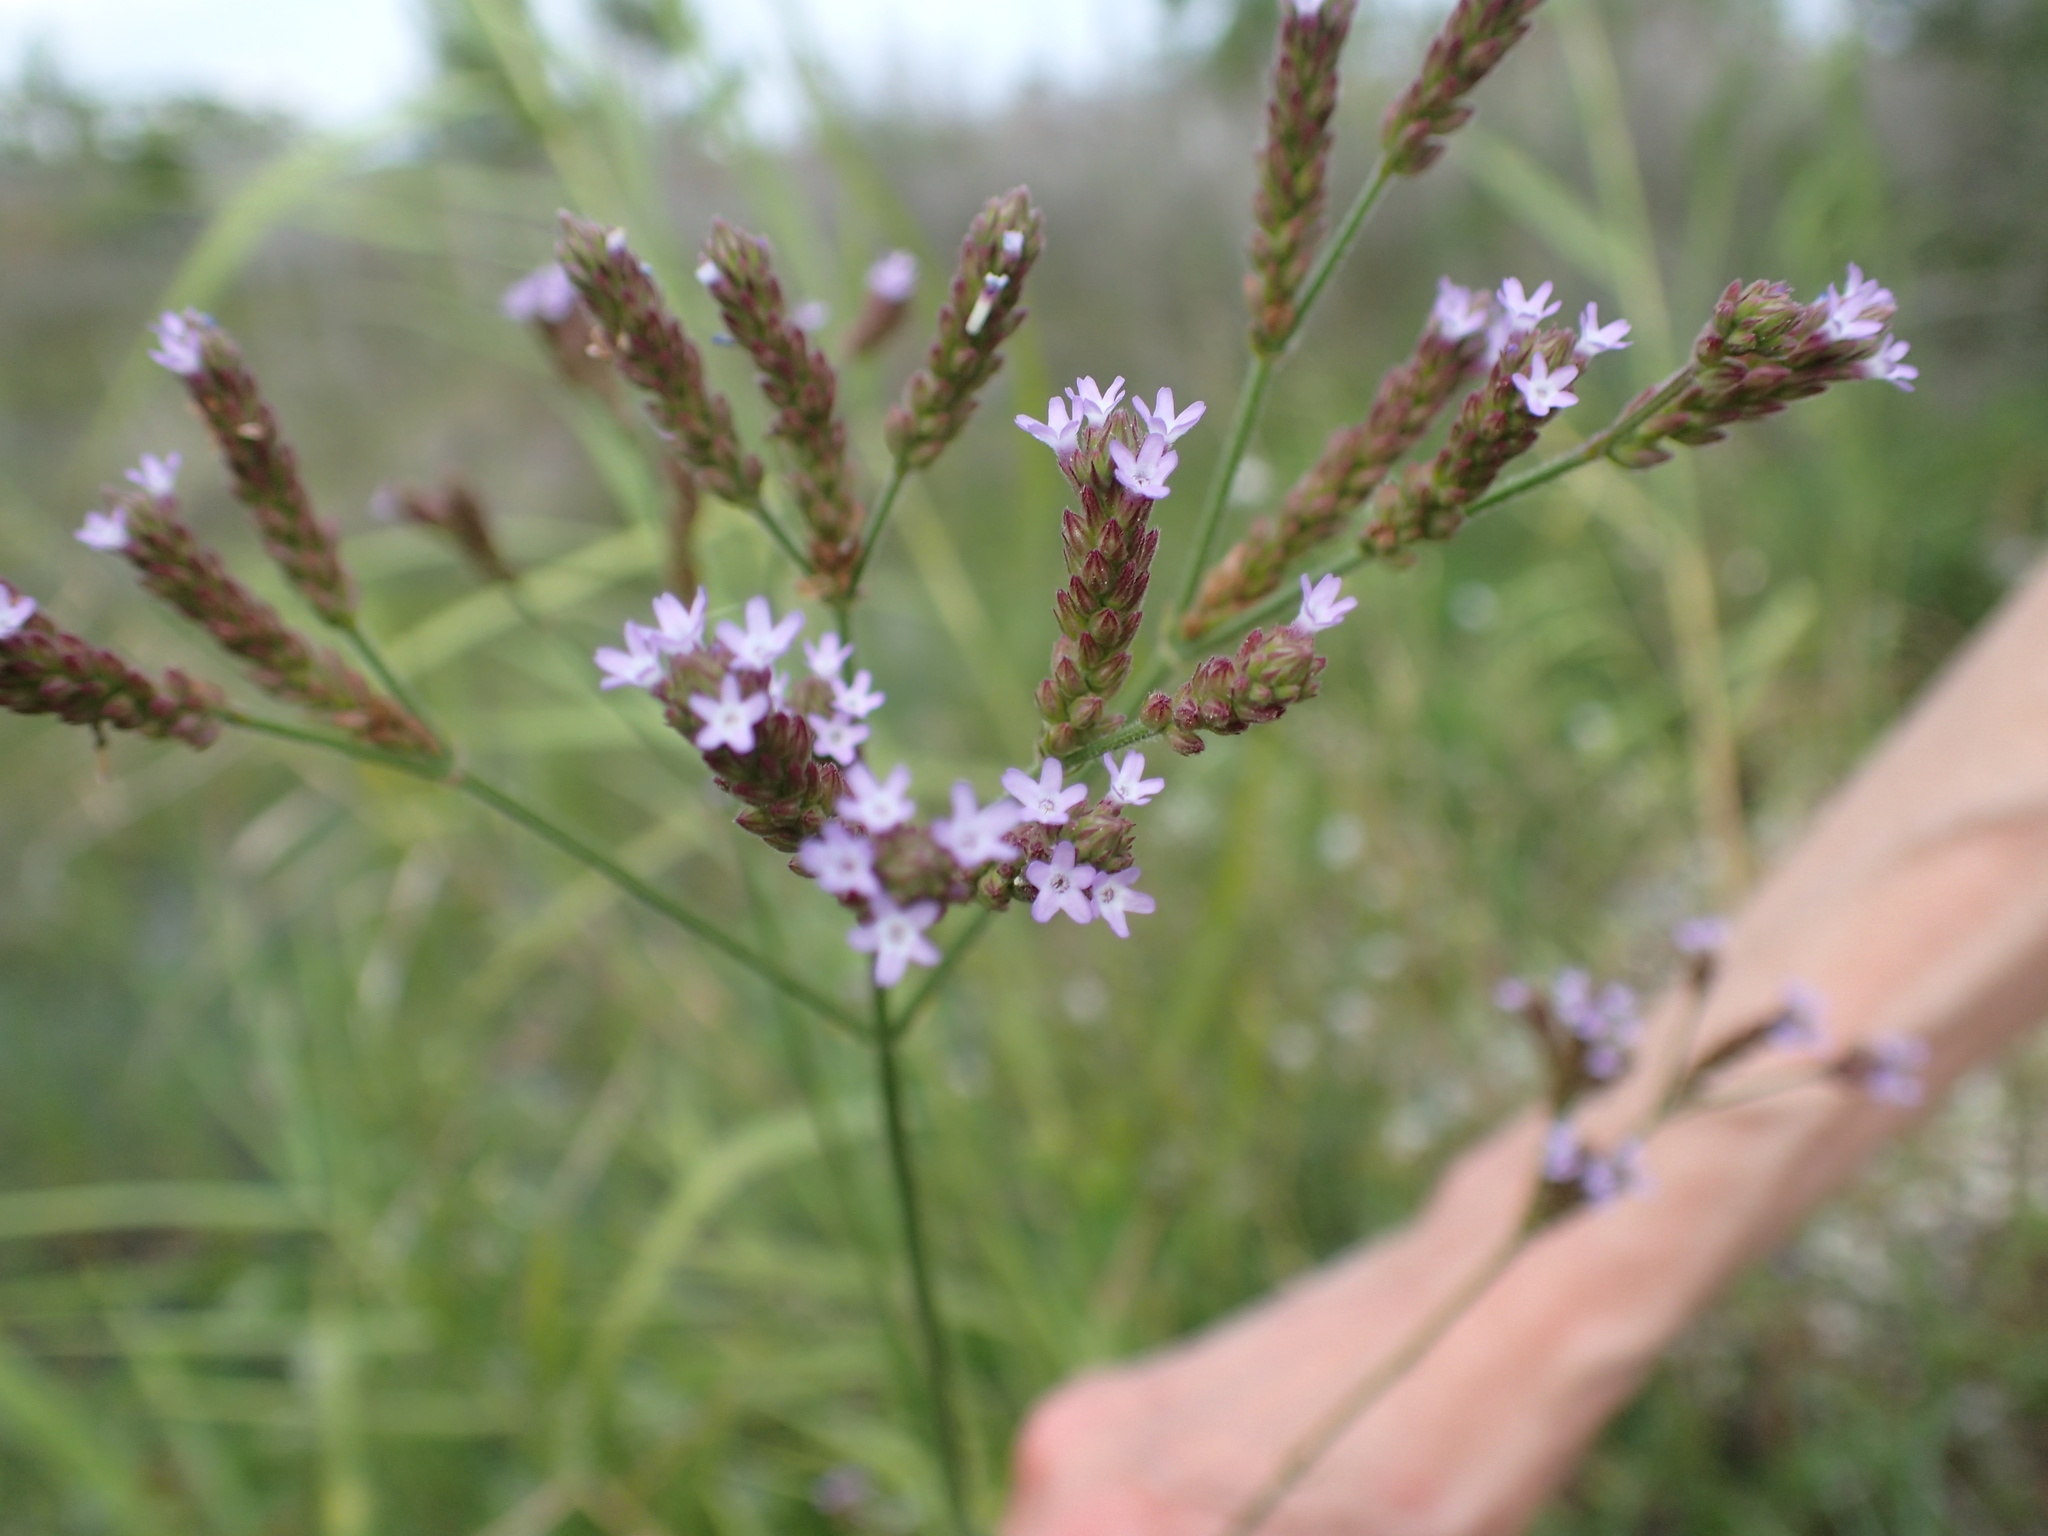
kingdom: Plantae
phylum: Tracheophyta
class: Magnoliopsida
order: Lamiales
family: Verbenaceae
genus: Verbena
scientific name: Verbena brasiliensis
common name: Brazilian vervain
